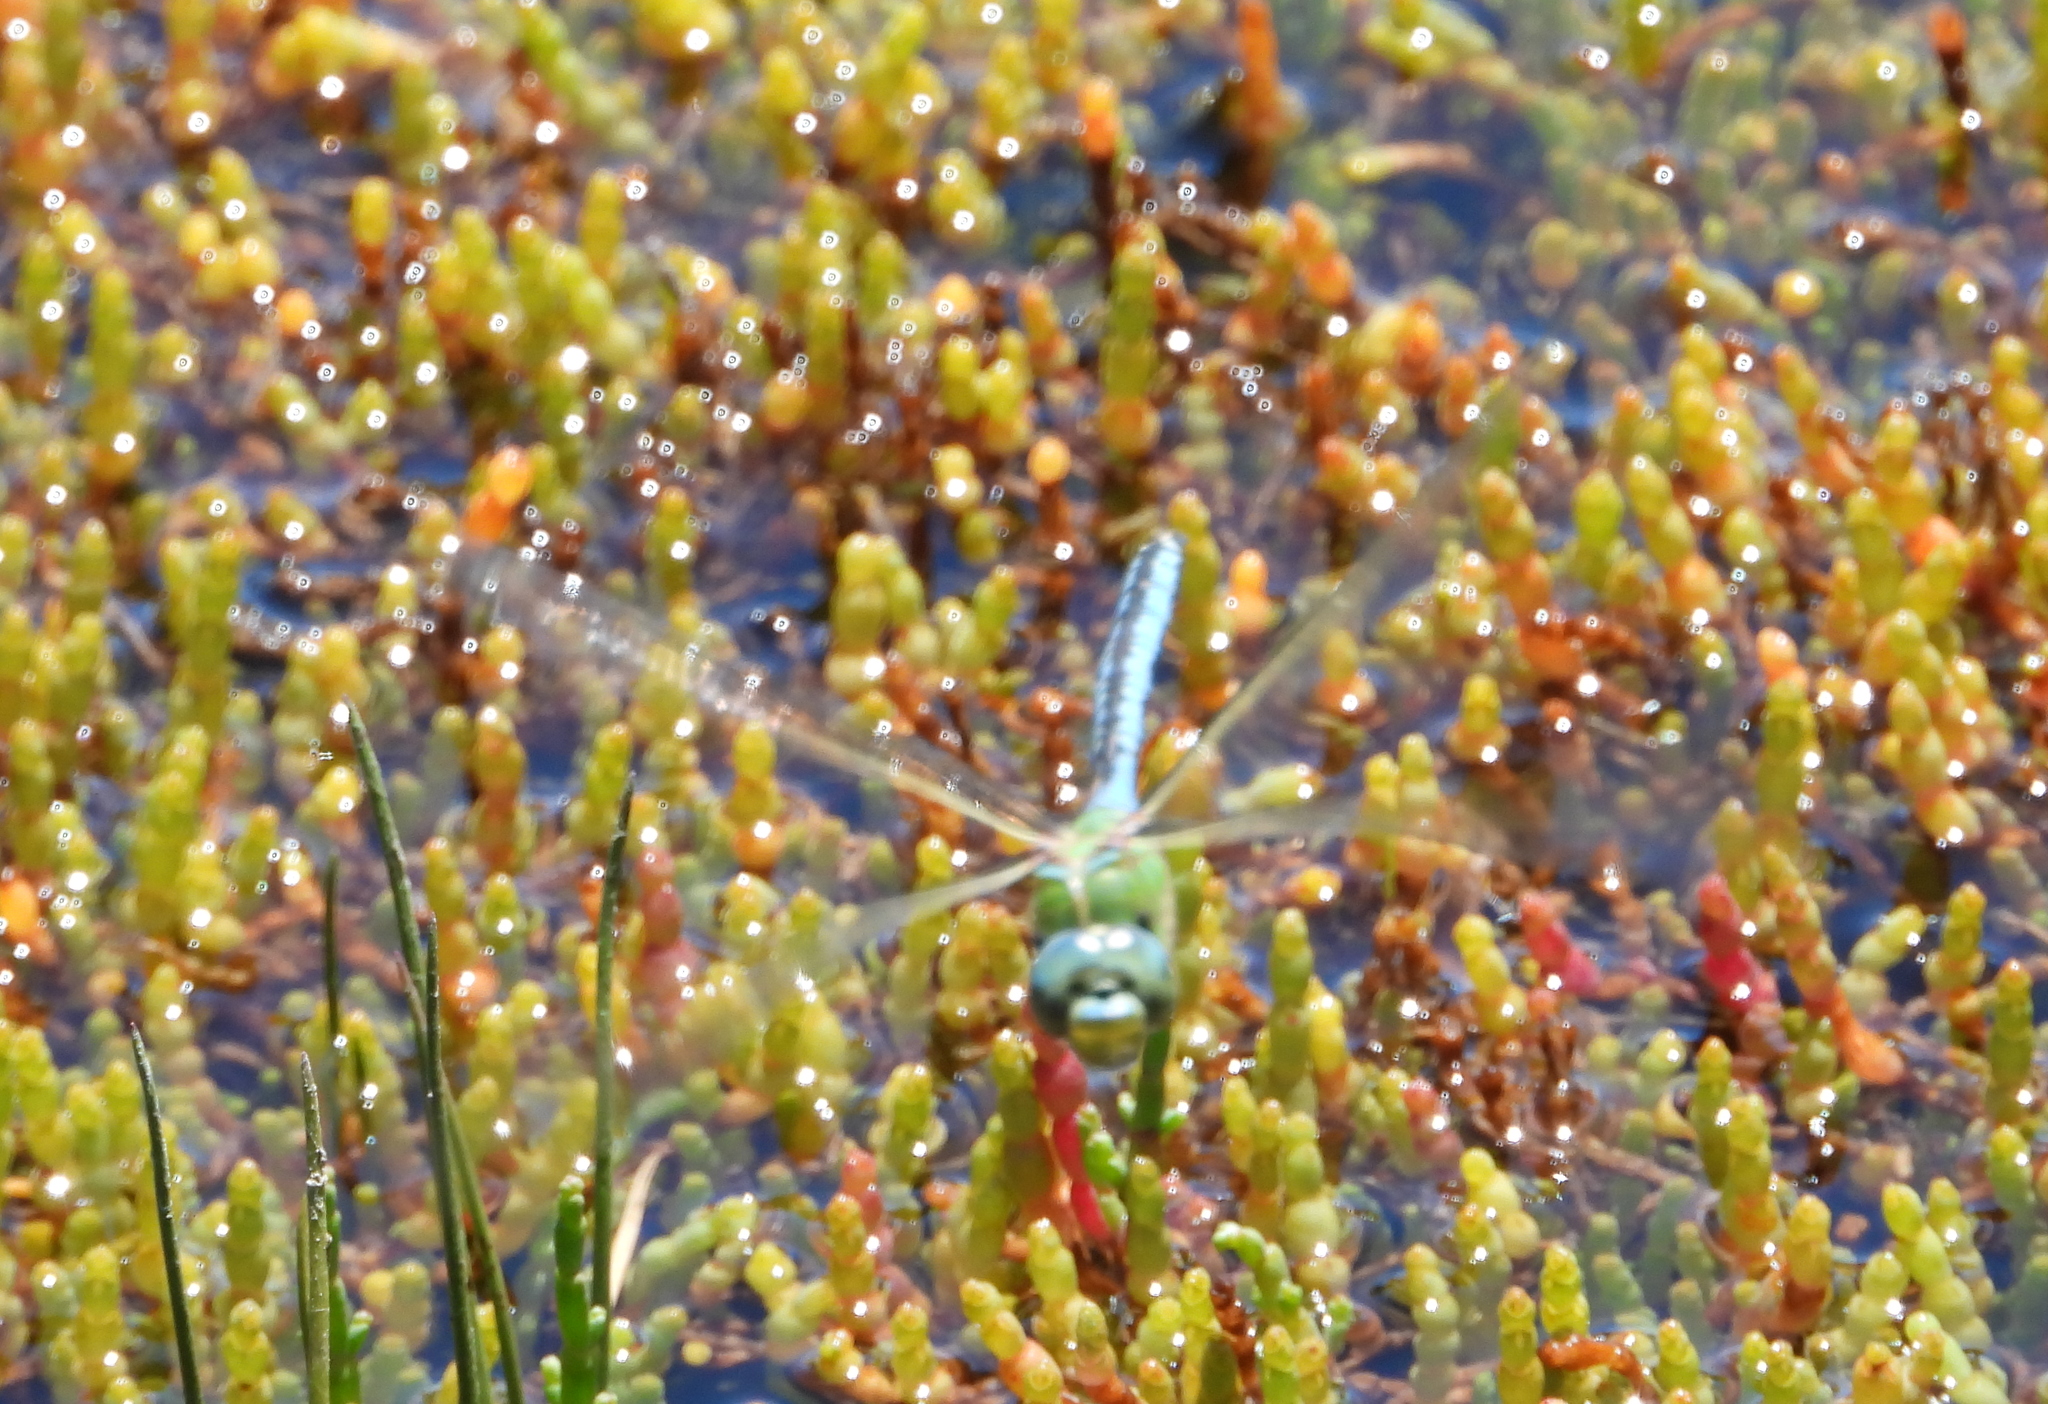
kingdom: Animalia
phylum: Arthropoda
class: Insecta
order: Odonata
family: Aeshnidae
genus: Anax
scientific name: Anax imperator
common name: Emperor dragonfly
